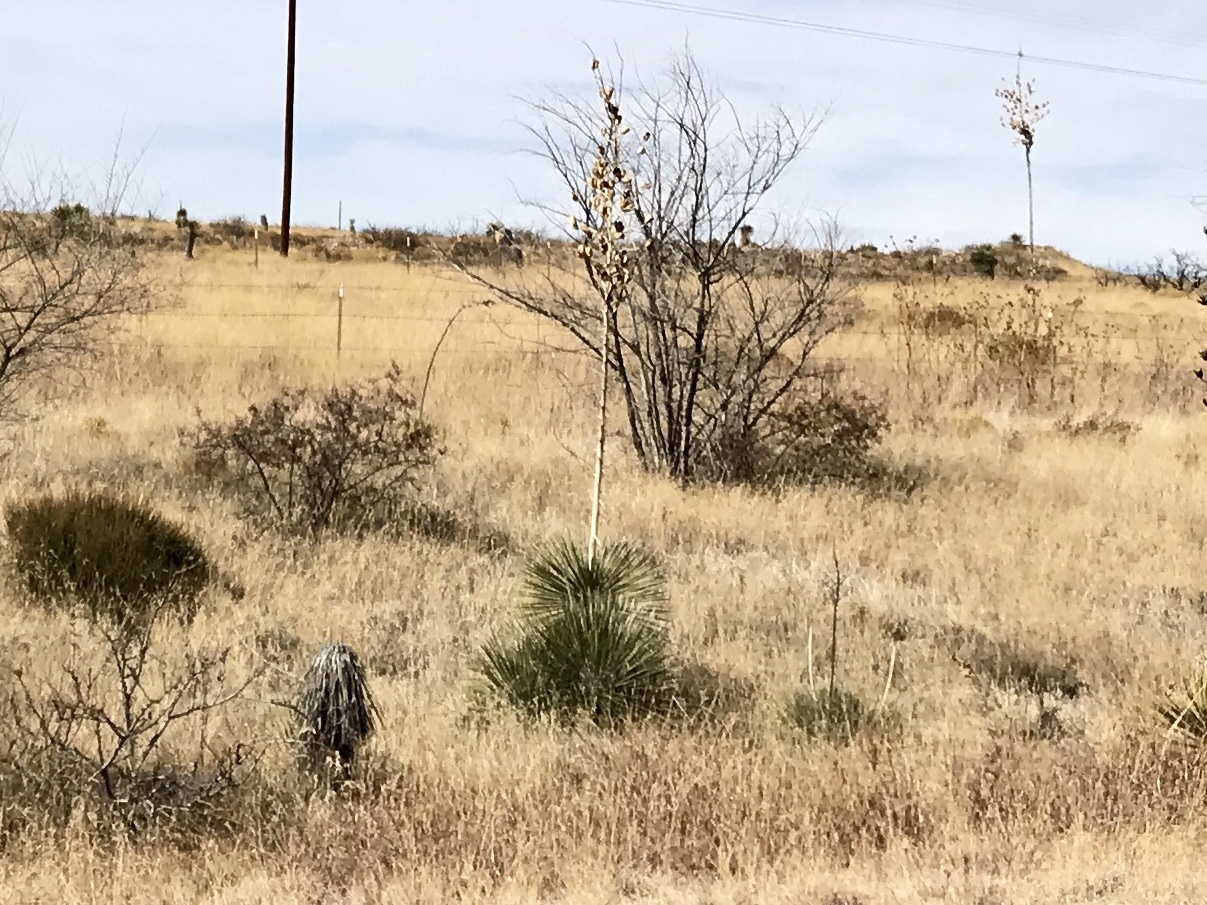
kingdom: Plantae
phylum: Tracheophyta
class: Liliopsida
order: Asparagales
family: Asparagaceae
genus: Yucca
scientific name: Yucca elata
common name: Palmella
